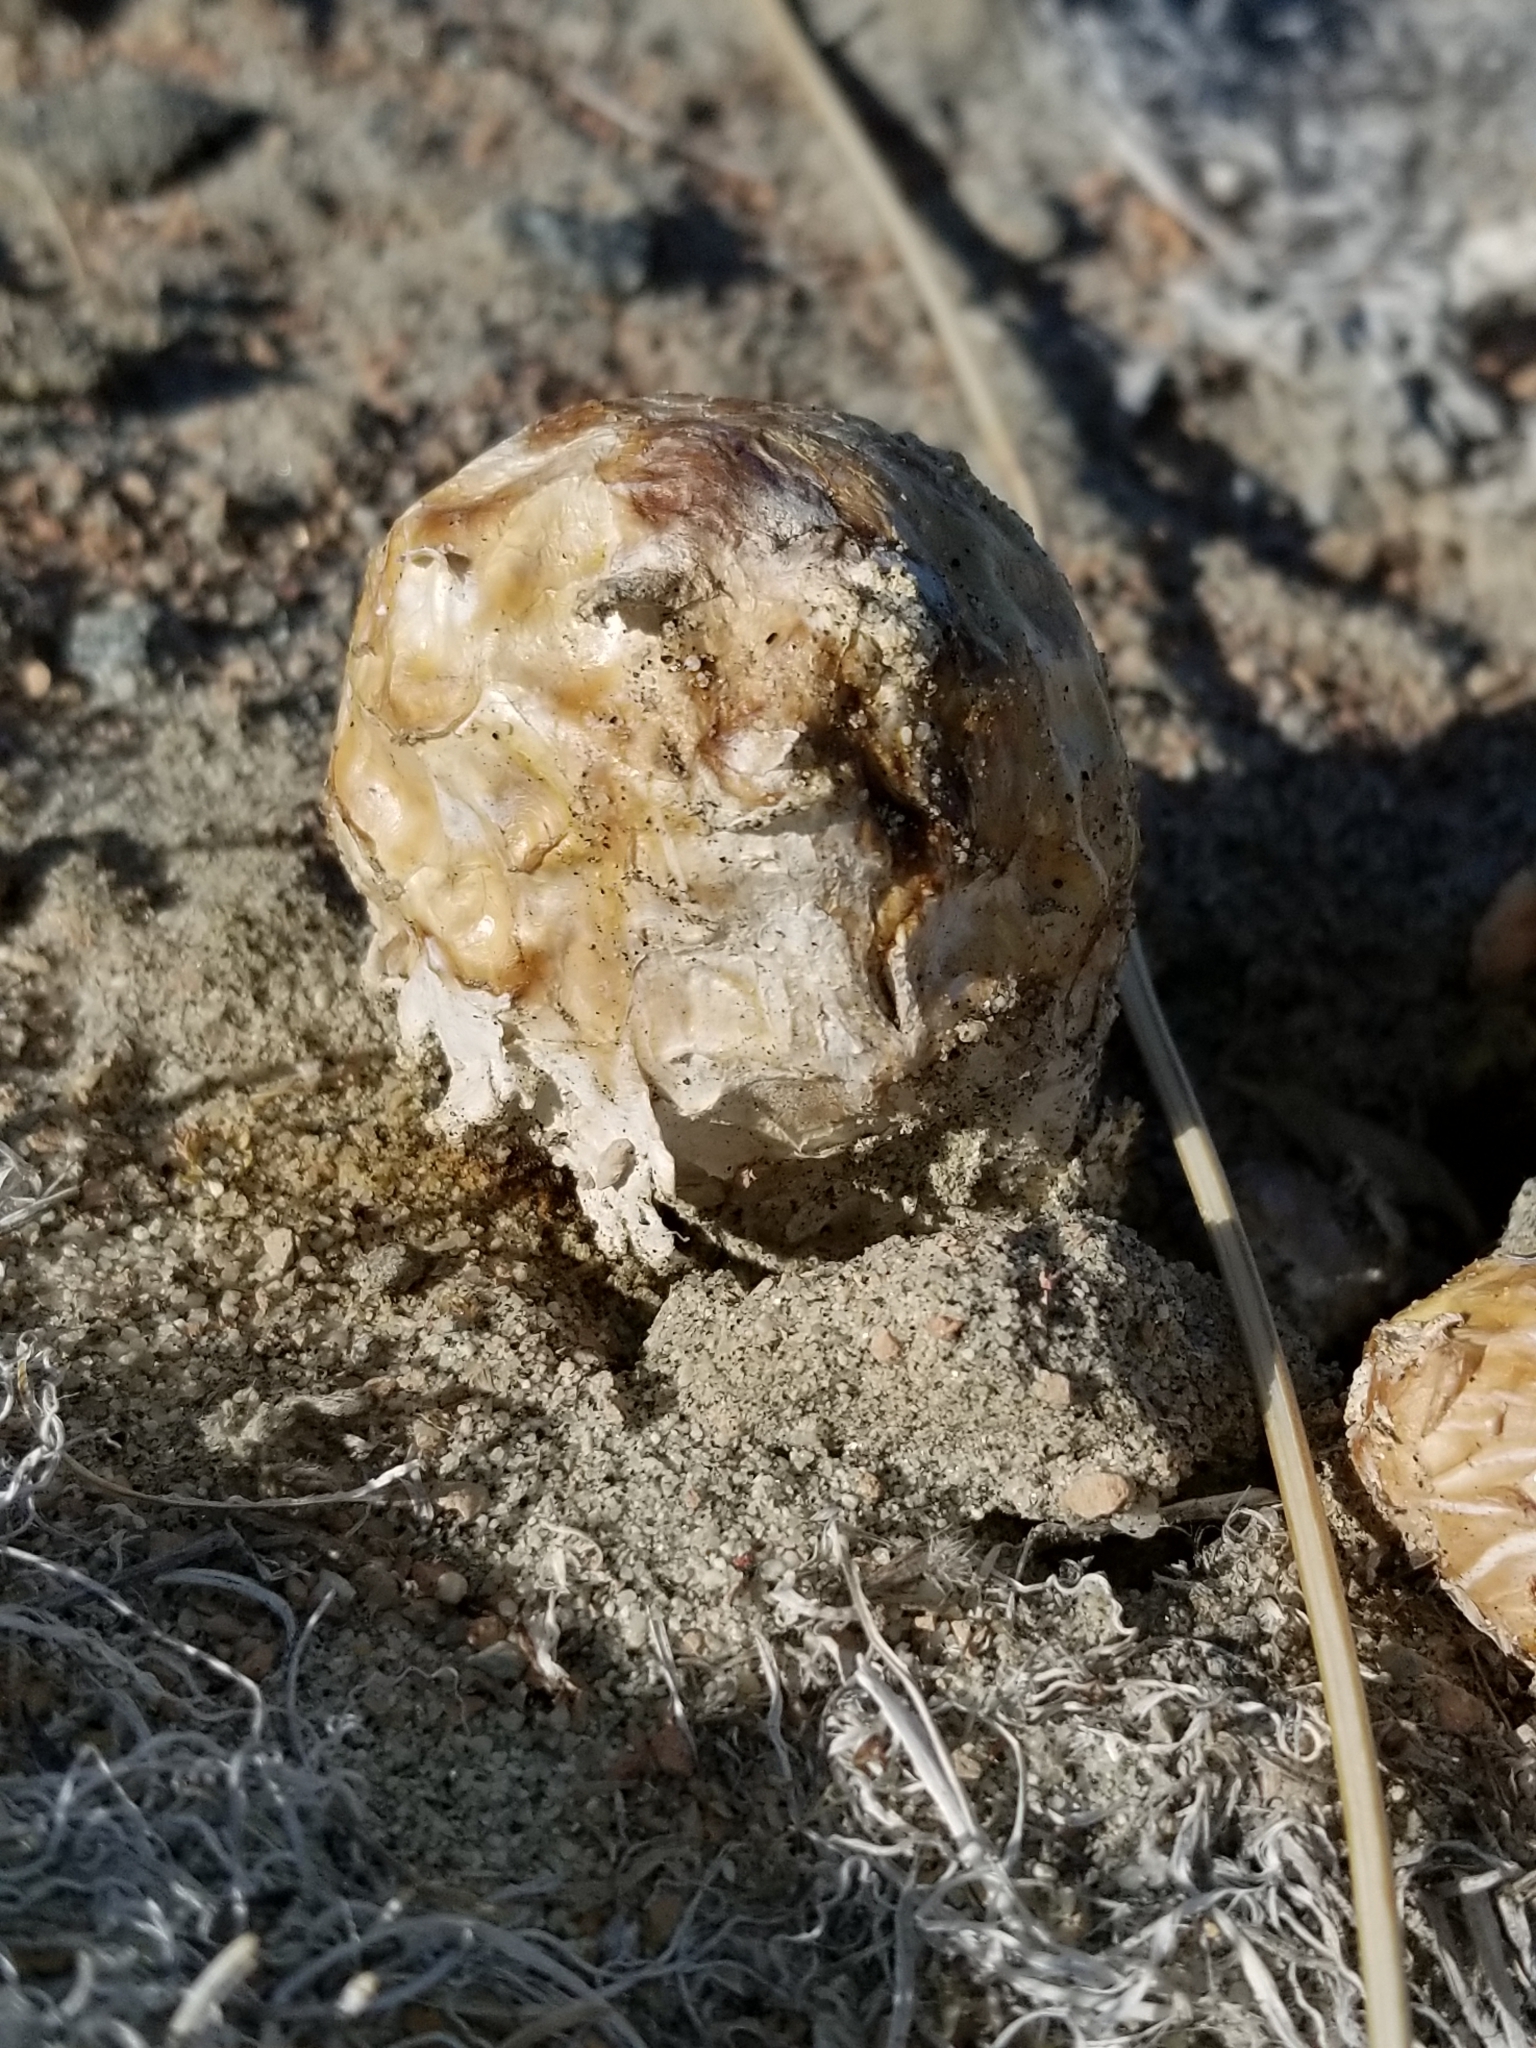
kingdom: Fungi
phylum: Basidiomycota
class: Agaricomycetes
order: Agaricales
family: Agaricaceae
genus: Podaxis
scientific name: Podaxis pistillaris
